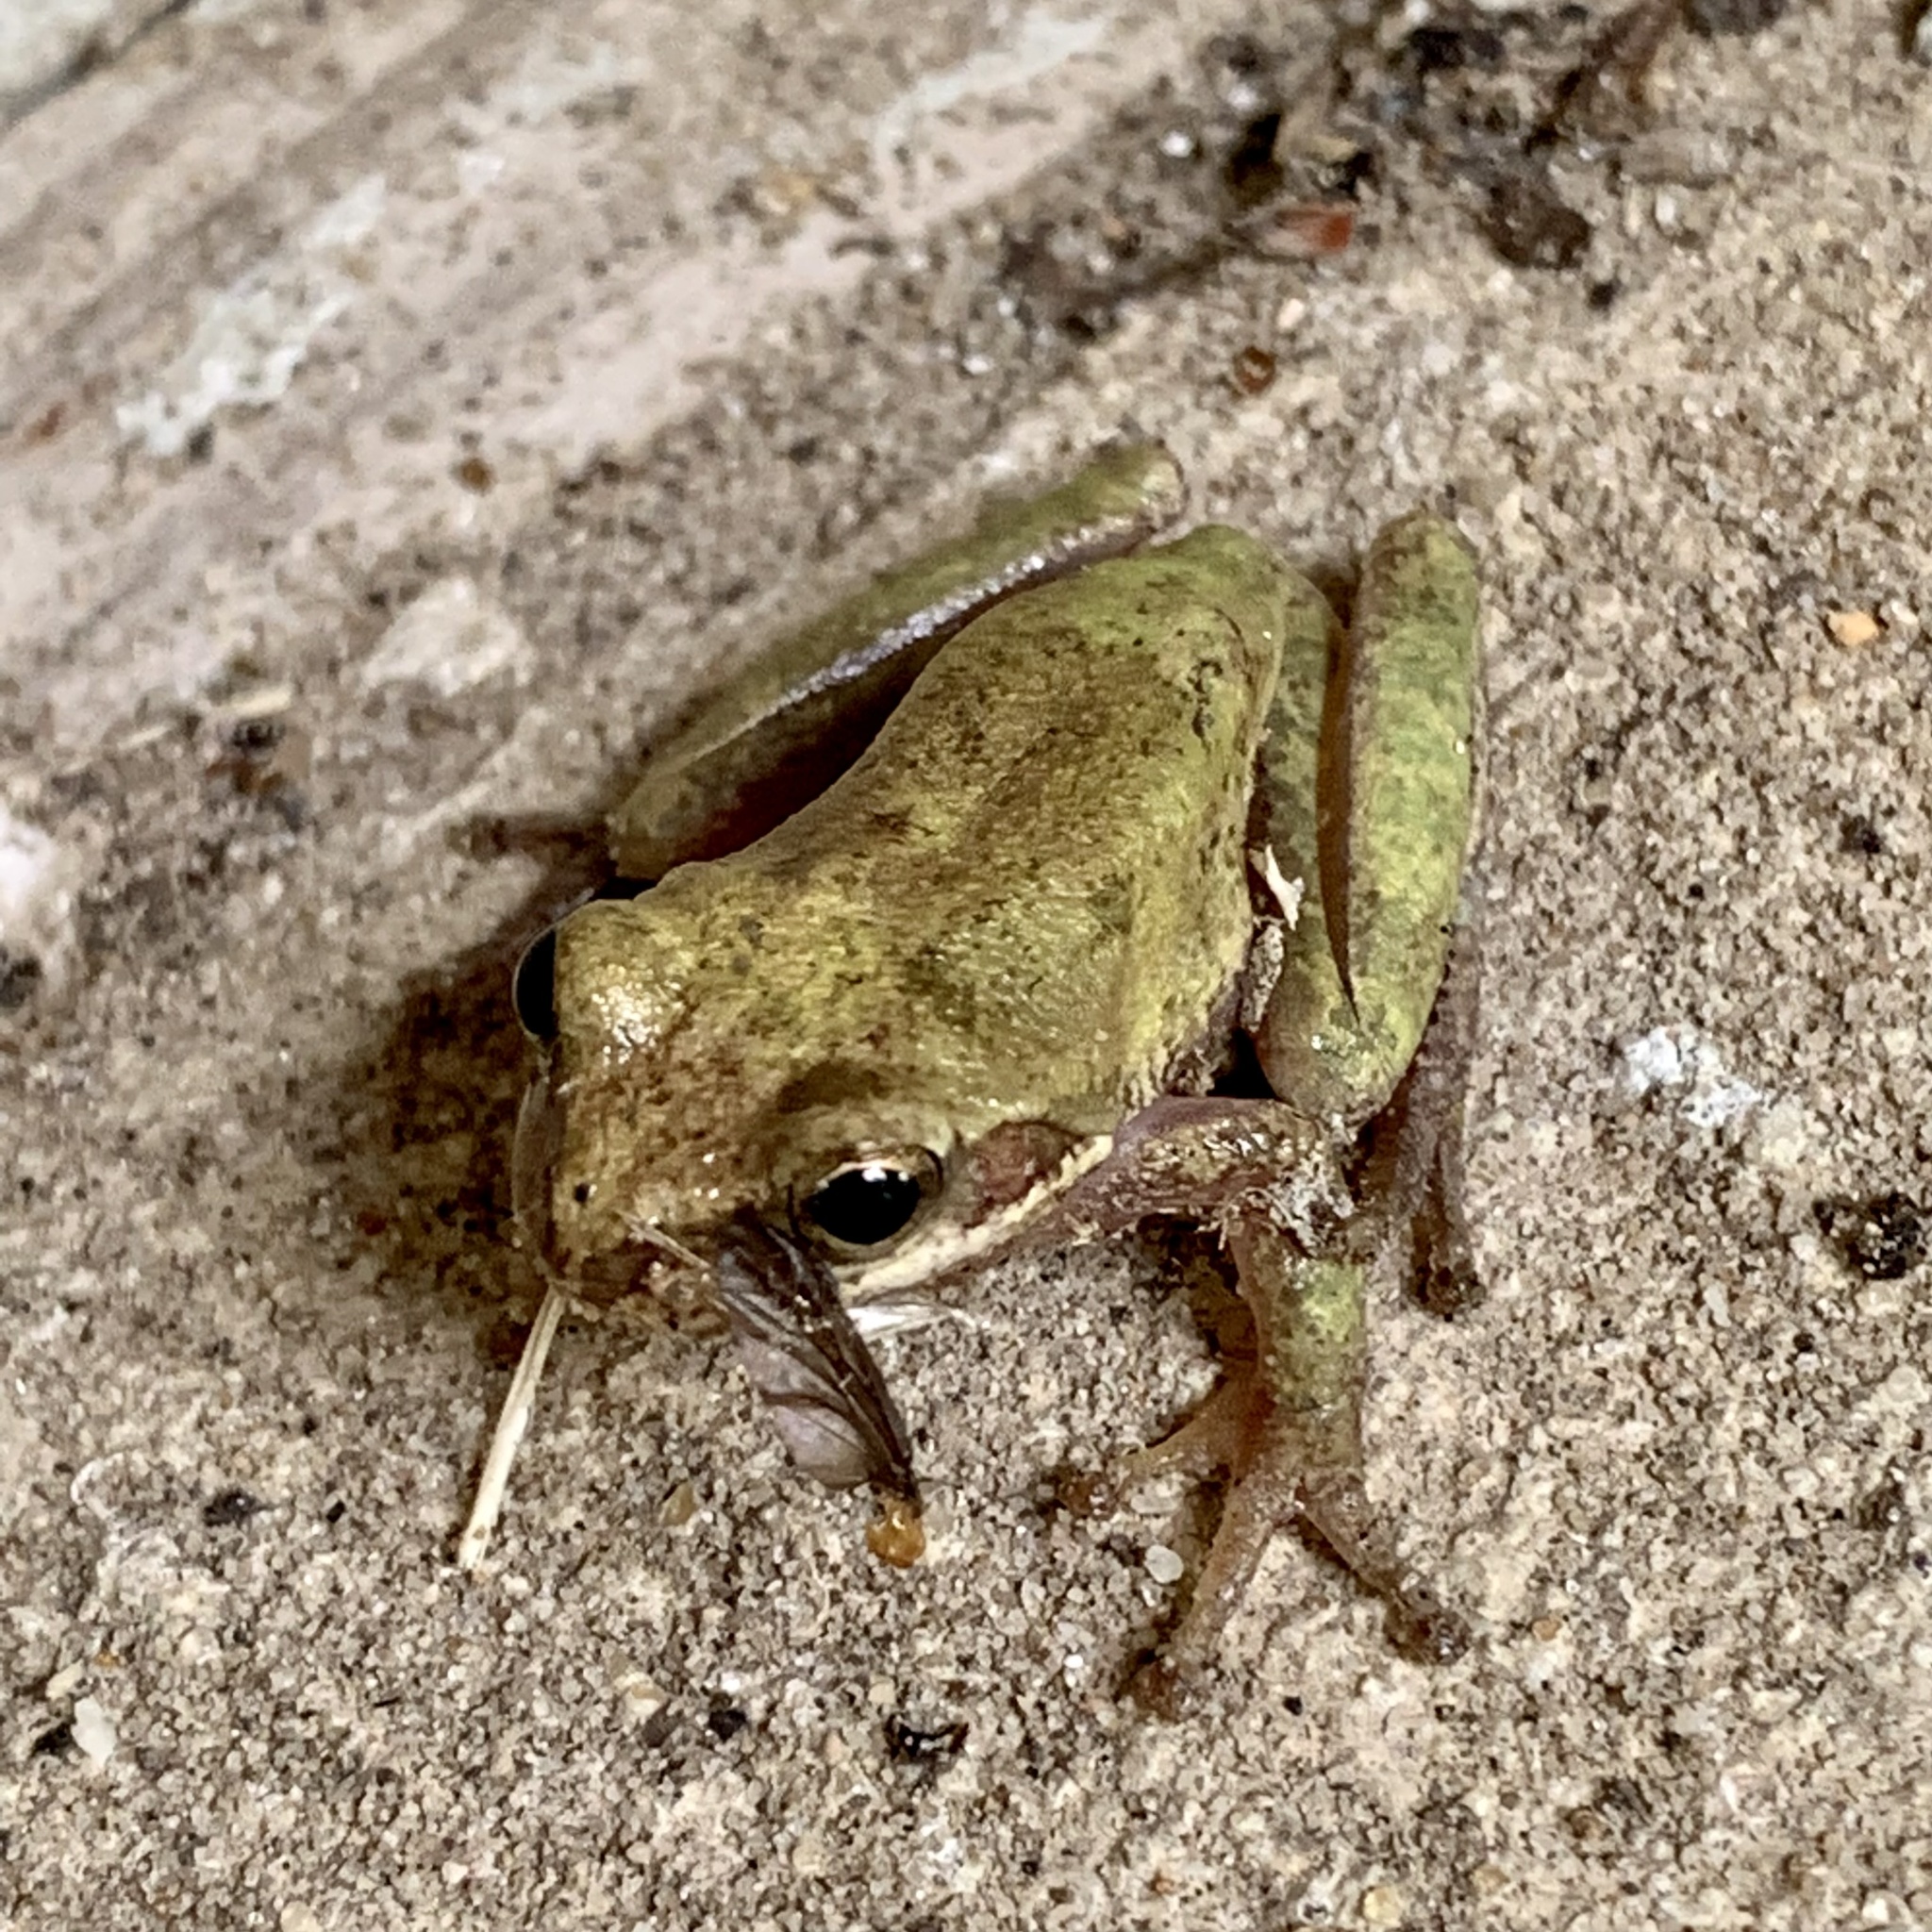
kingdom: Animalia
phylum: Chordata
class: Amphibia
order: Anura
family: Hylidae
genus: Dryophytes
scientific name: Dryophytes squirellus
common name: Squirrel treefrog
